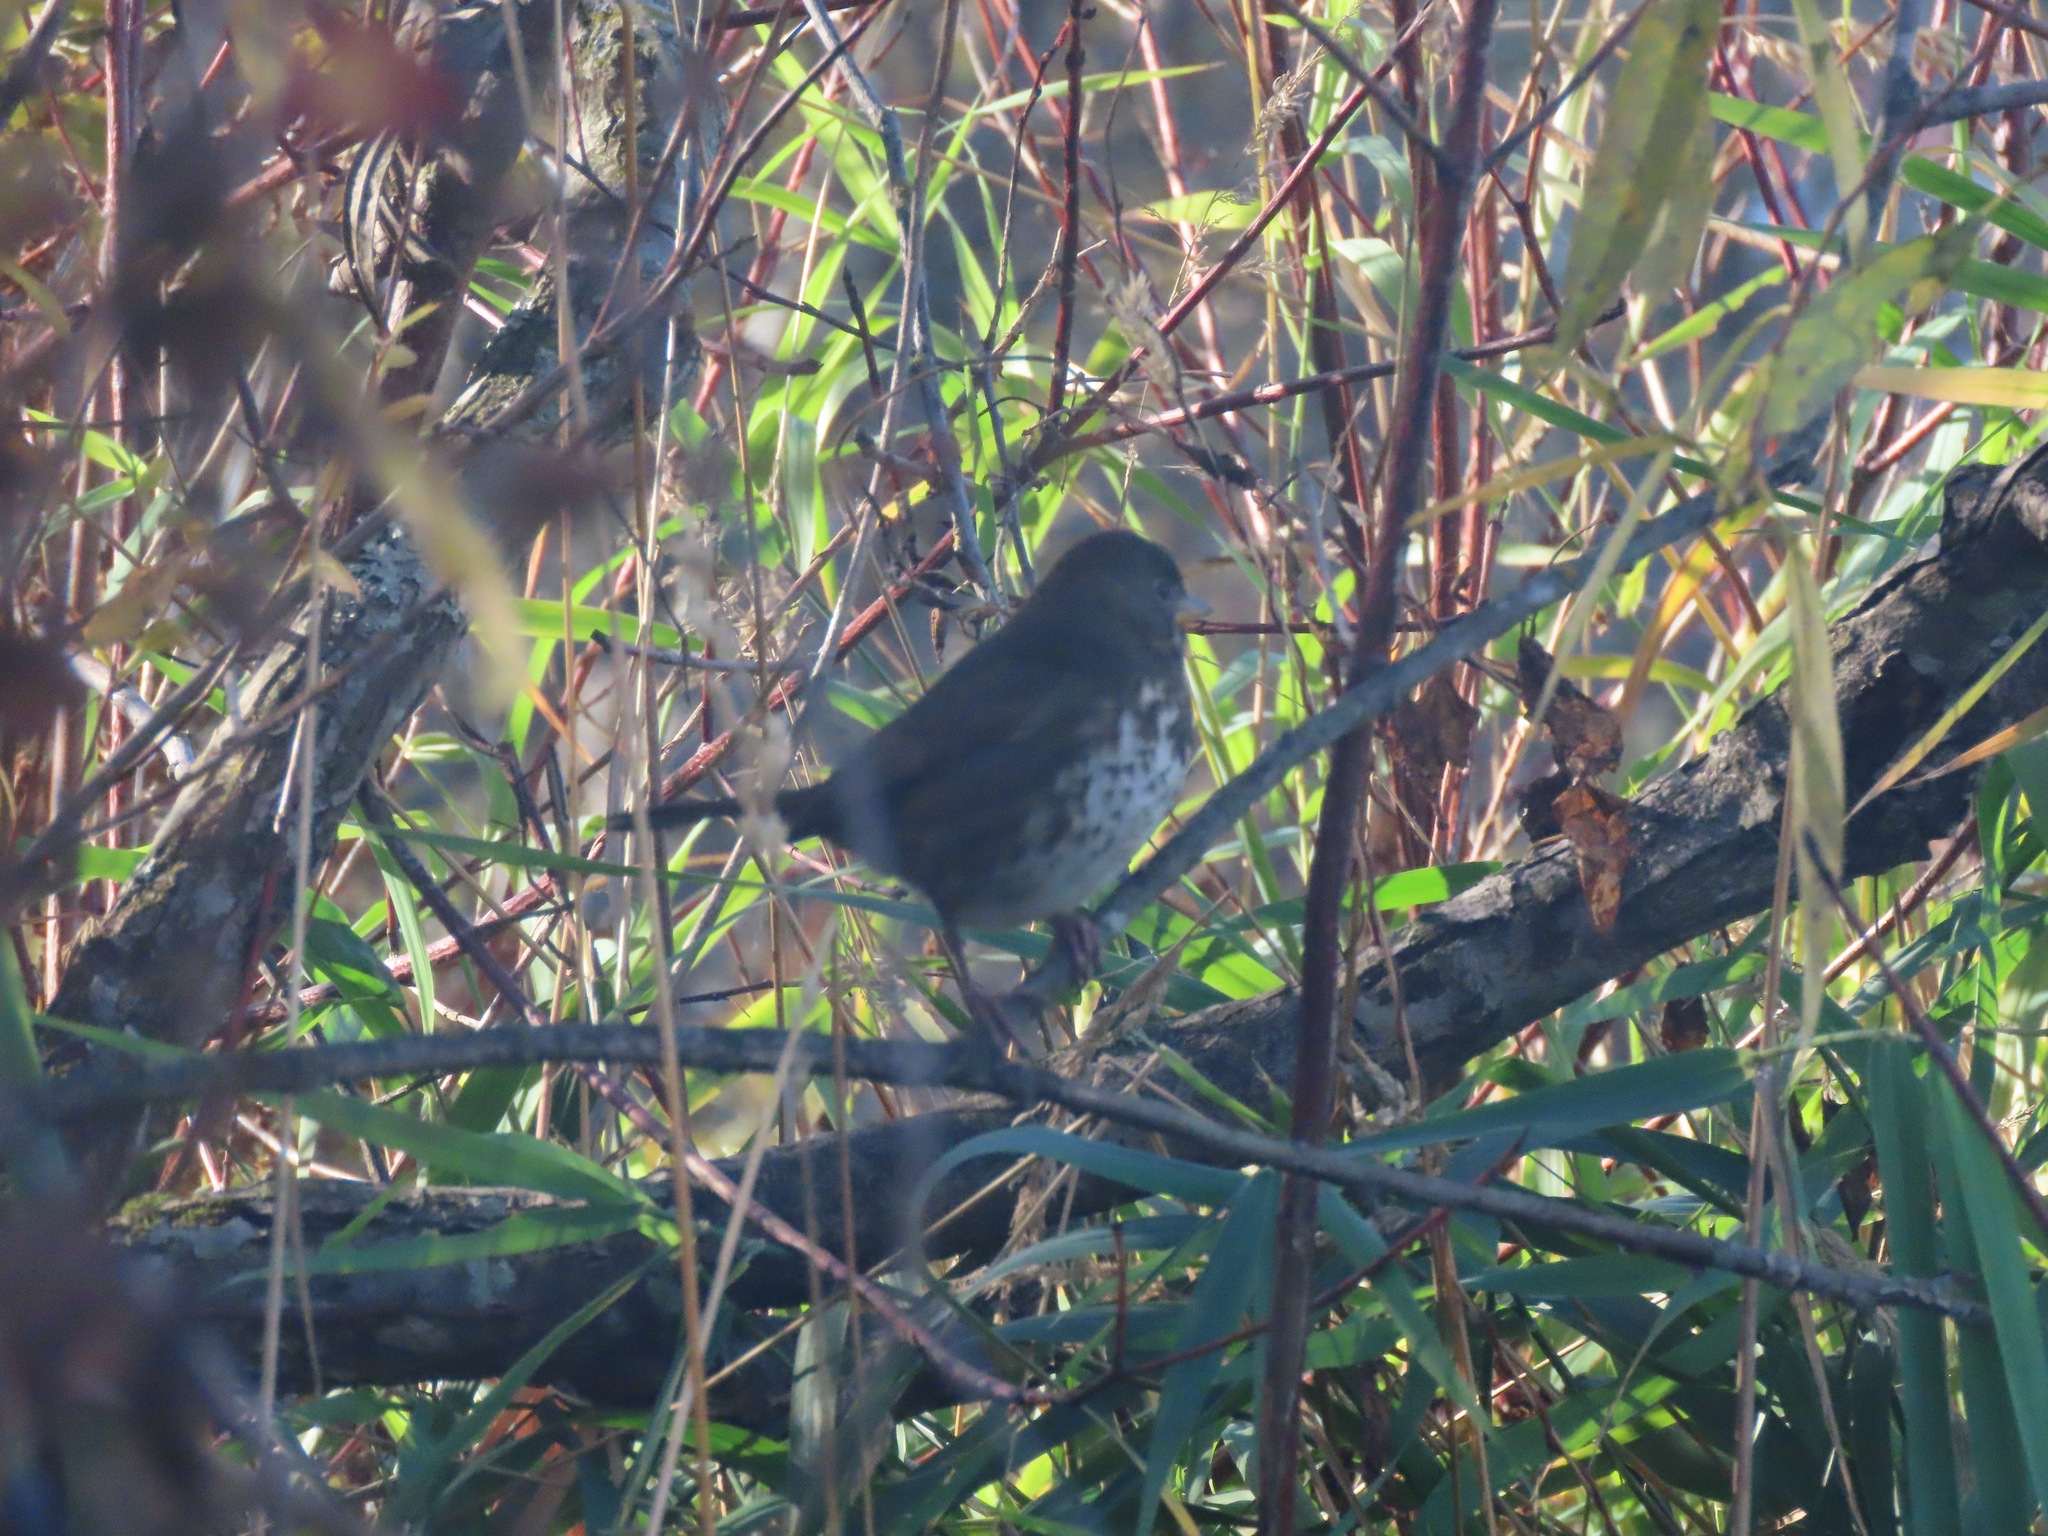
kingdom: Animalia
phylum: Chordata
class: Aves
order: Passeriformes
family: Passerellidae
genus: Passerella
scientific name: Passerella iliaca
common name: Fox sparrow
